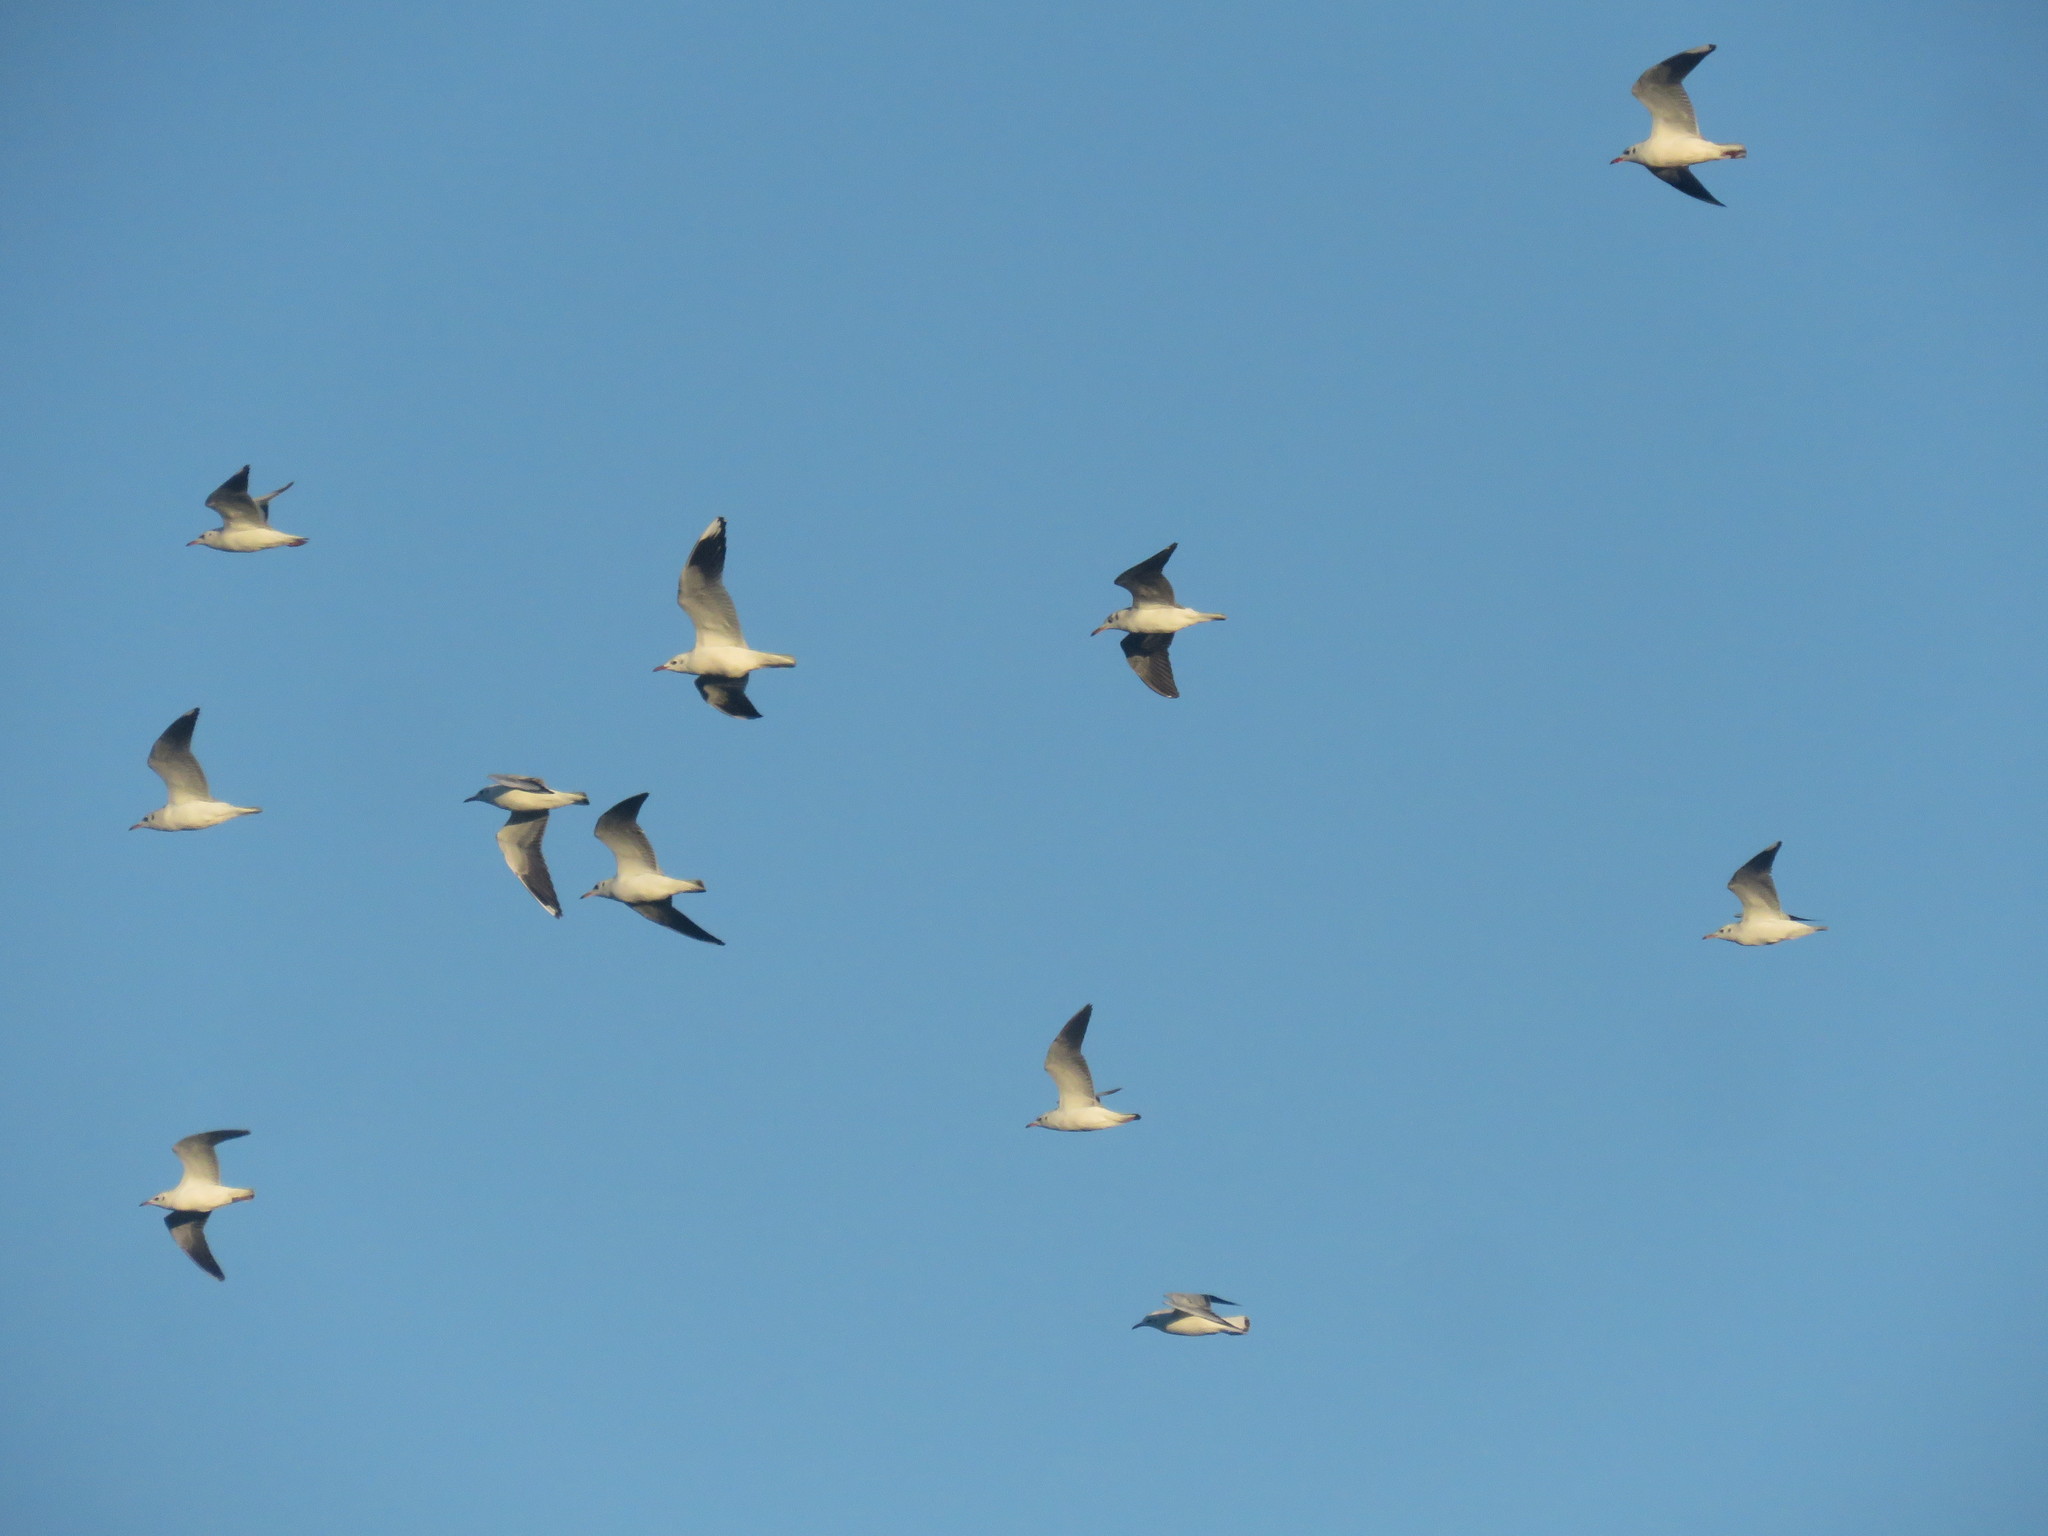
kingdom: Animalia
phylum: Chordata
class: Aves
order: Charadriiformes
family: Laridae
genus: Chroicocephalus
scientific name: Chroicocephalus maculipennis
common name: Brown-hooded gull
